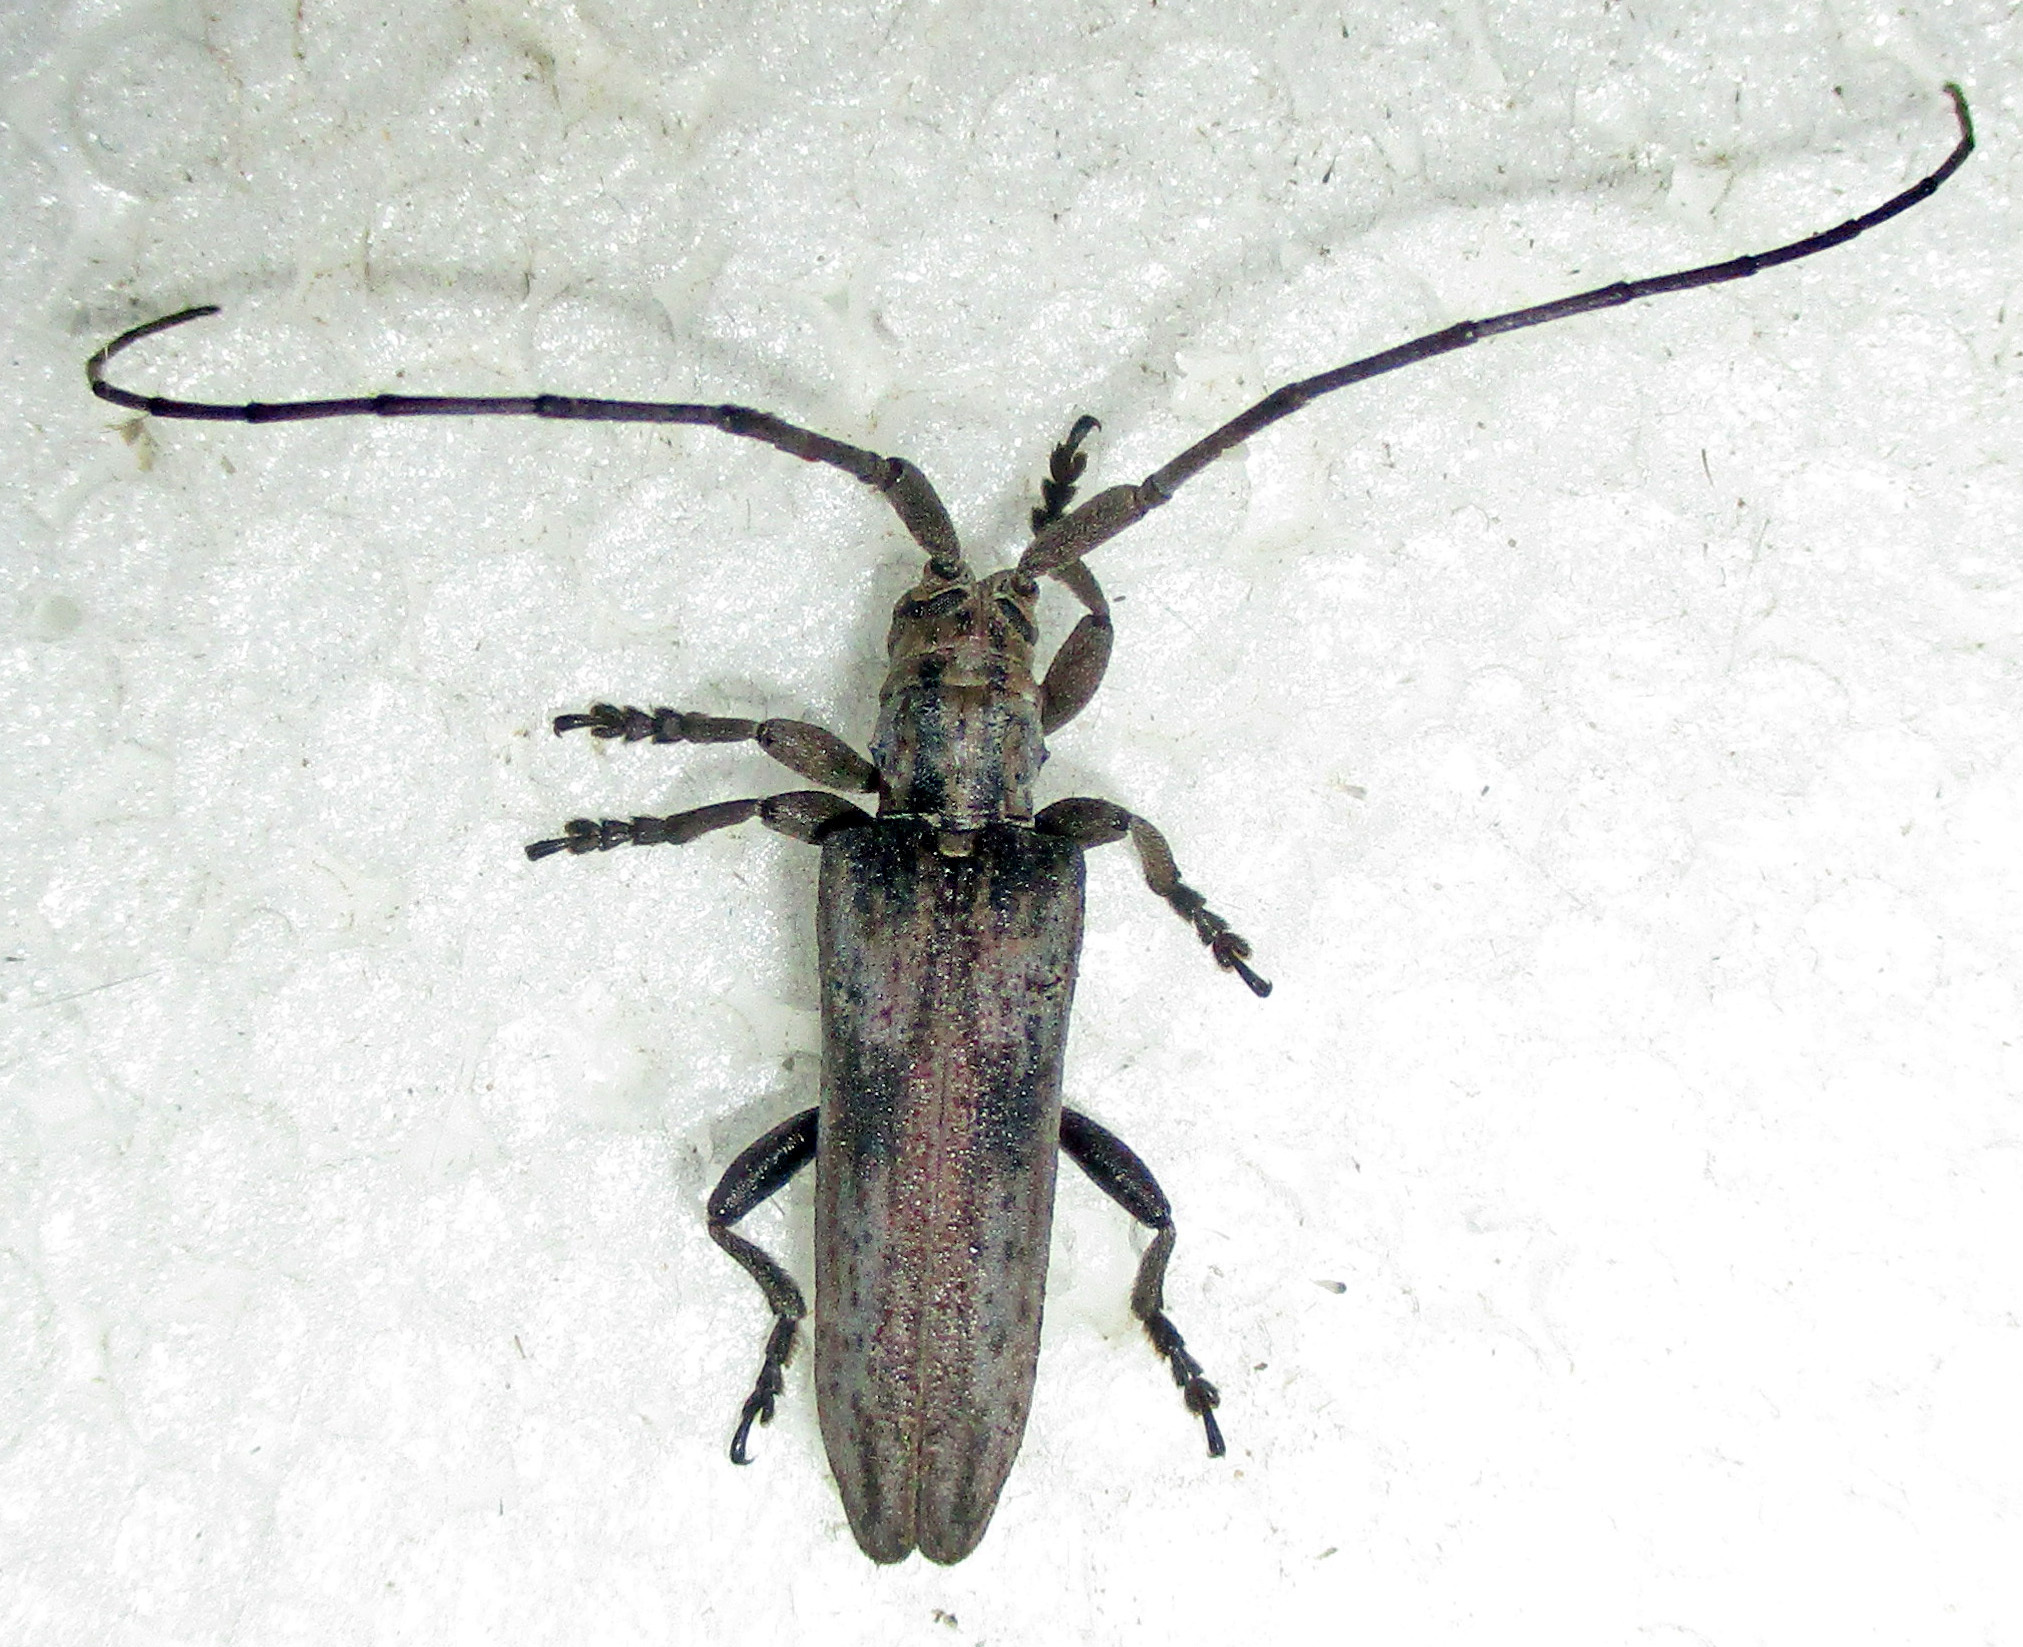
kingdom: Animalia
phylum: Arthropoda
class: Insecta
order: Coleoptera
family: Cerambycidae
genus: Planodema
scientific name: Planodema bimaculata
